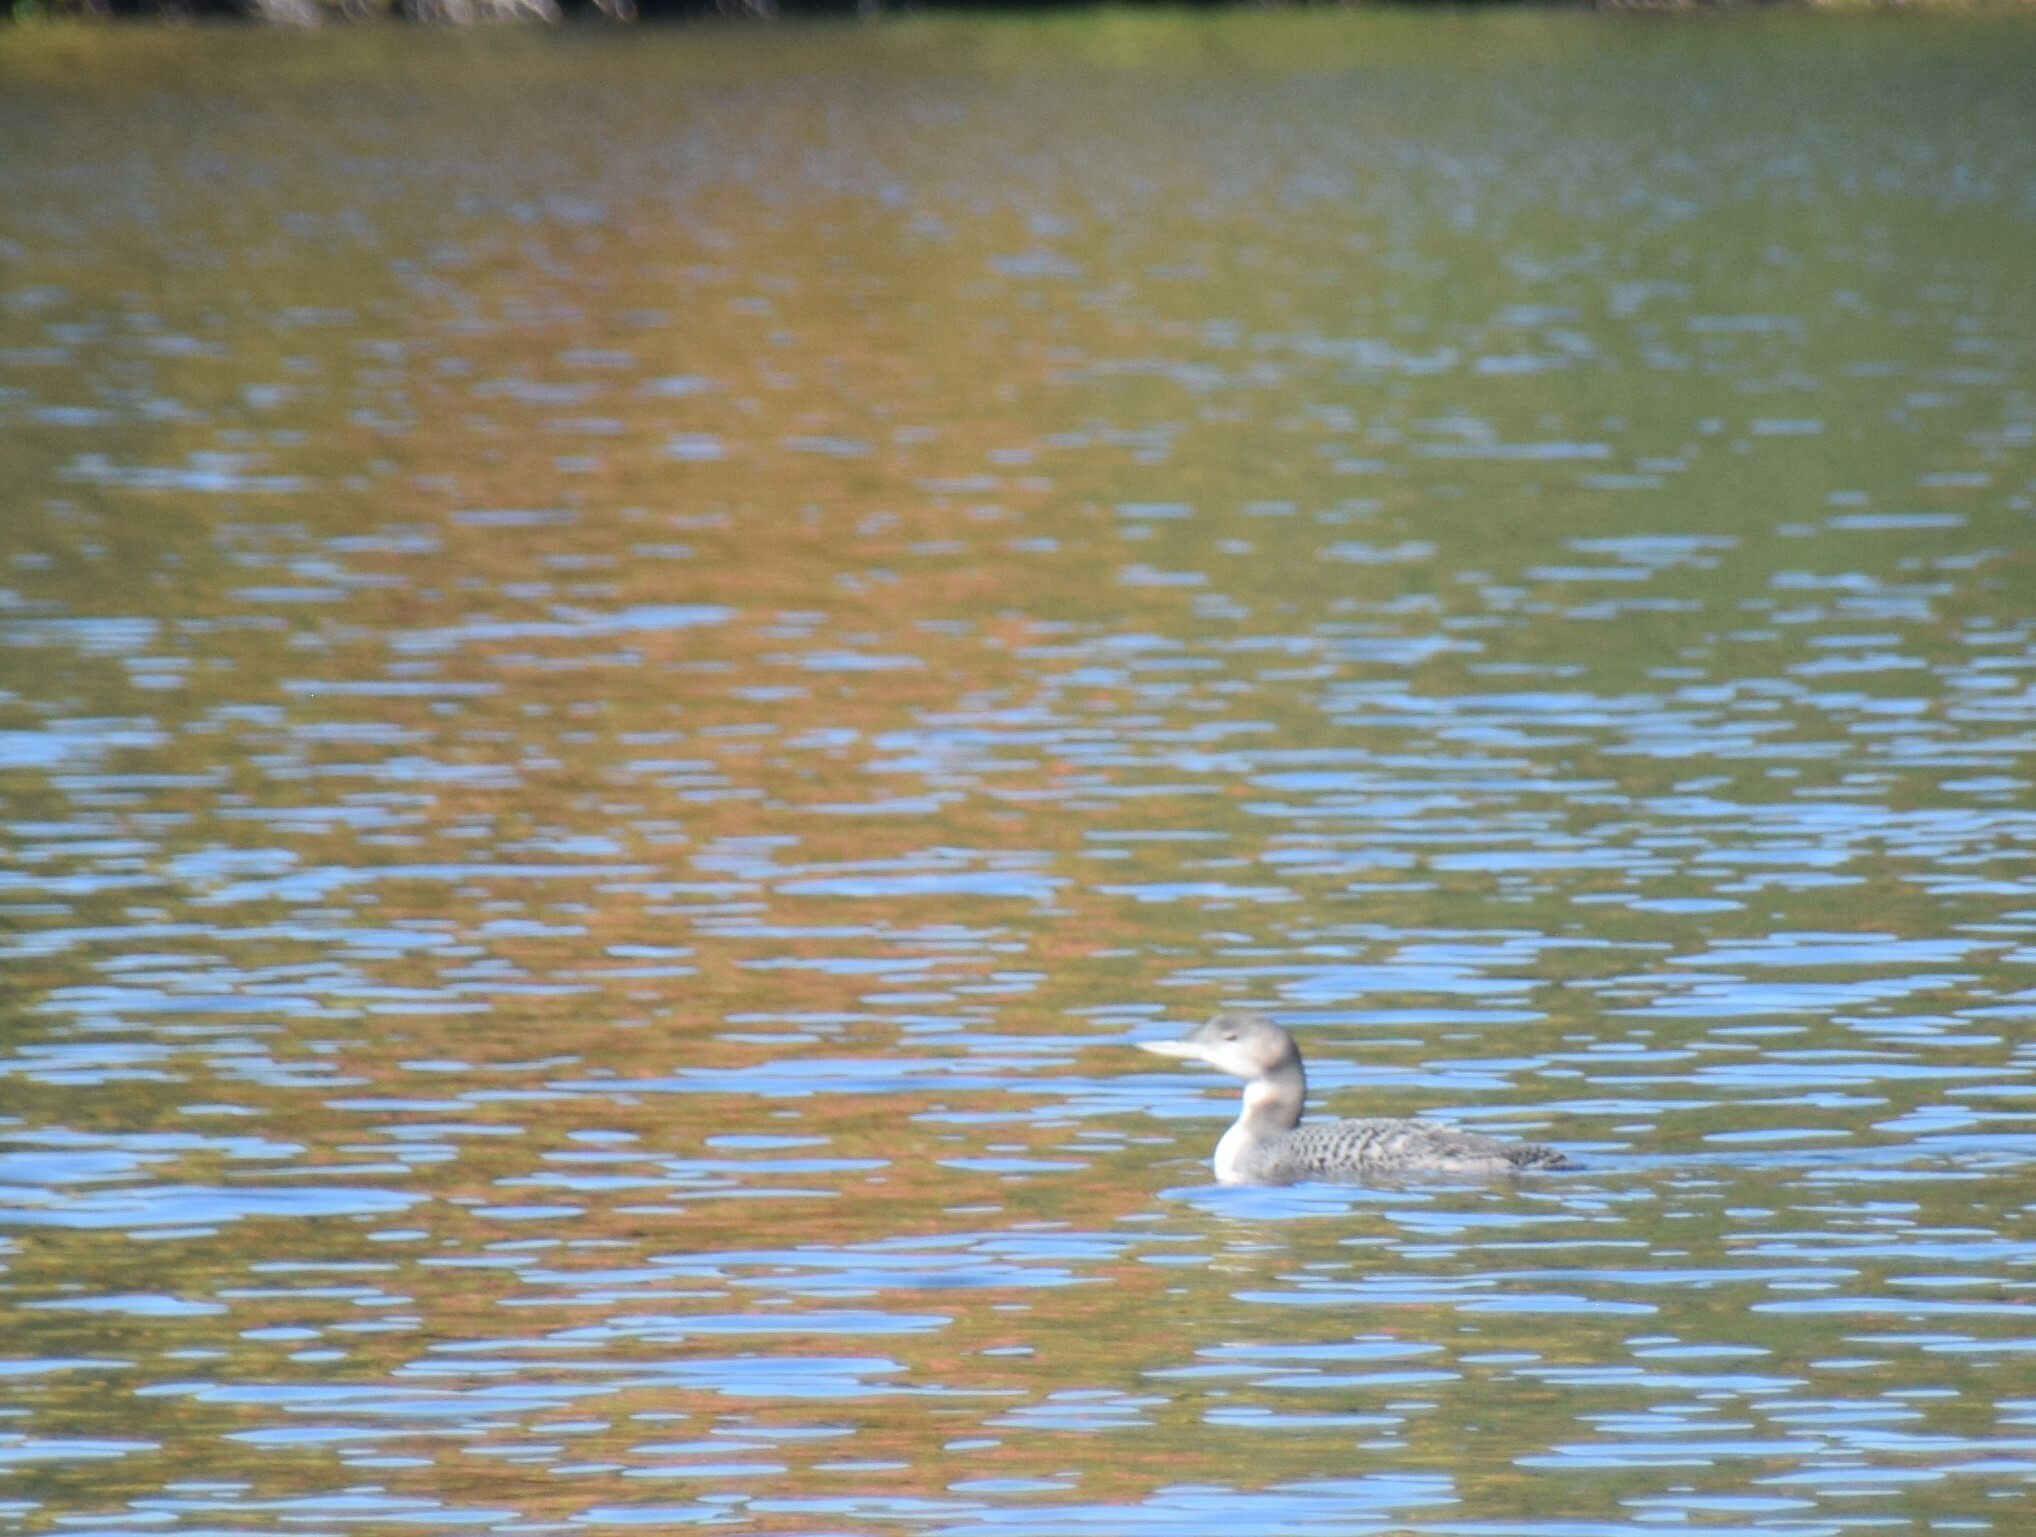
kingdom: Animalia
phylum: Chordata
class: Aves
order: Gaviiformes
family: Gaviidae
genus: Gavia
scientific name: Gavia immer
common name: Common loon
